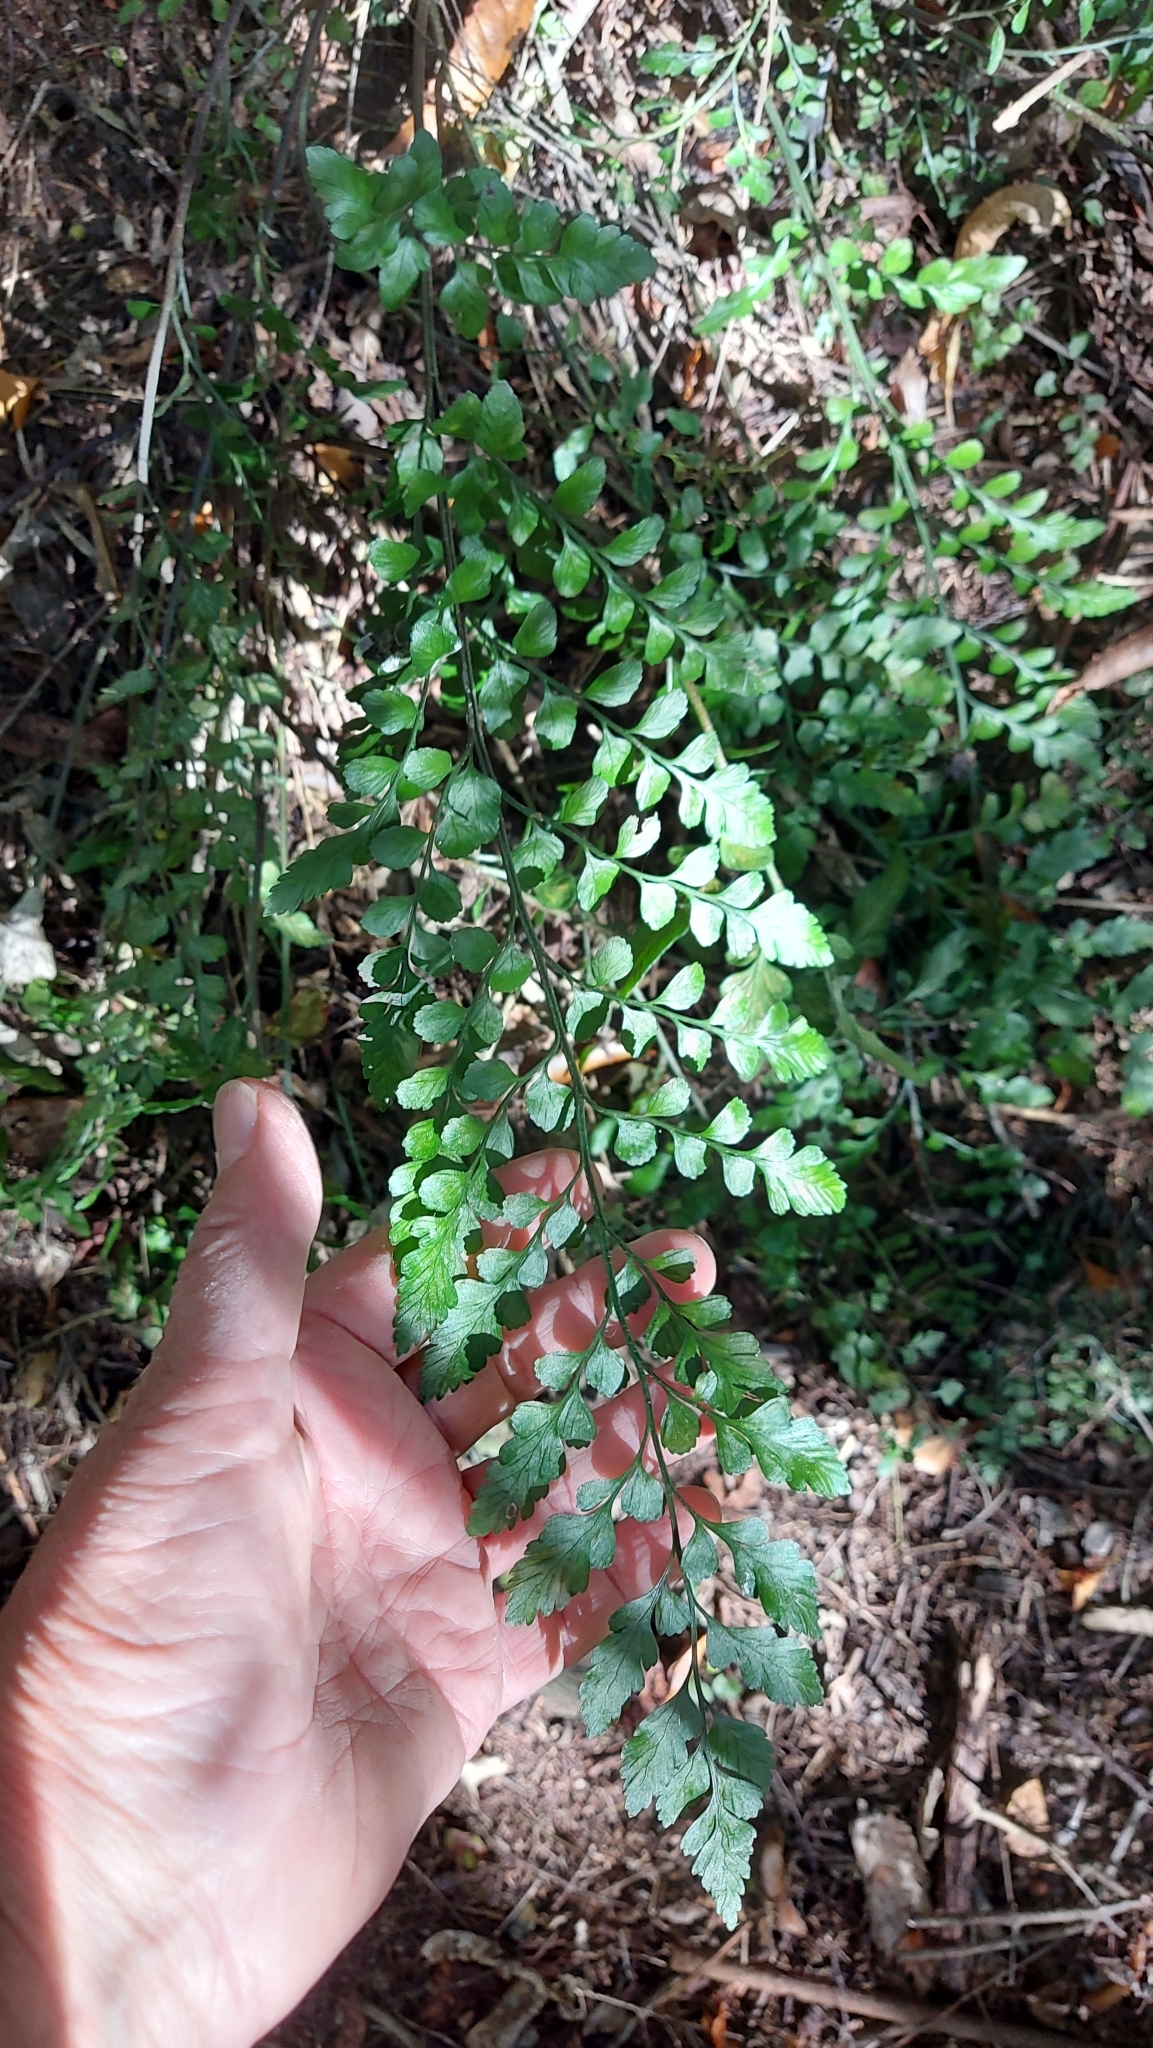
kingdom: Plantae
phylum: Tracheophyta
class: Polypodiopsida
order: Polypodiales
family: Aspleniaceae
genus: Asplenium
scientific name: Asplenium lyallii
